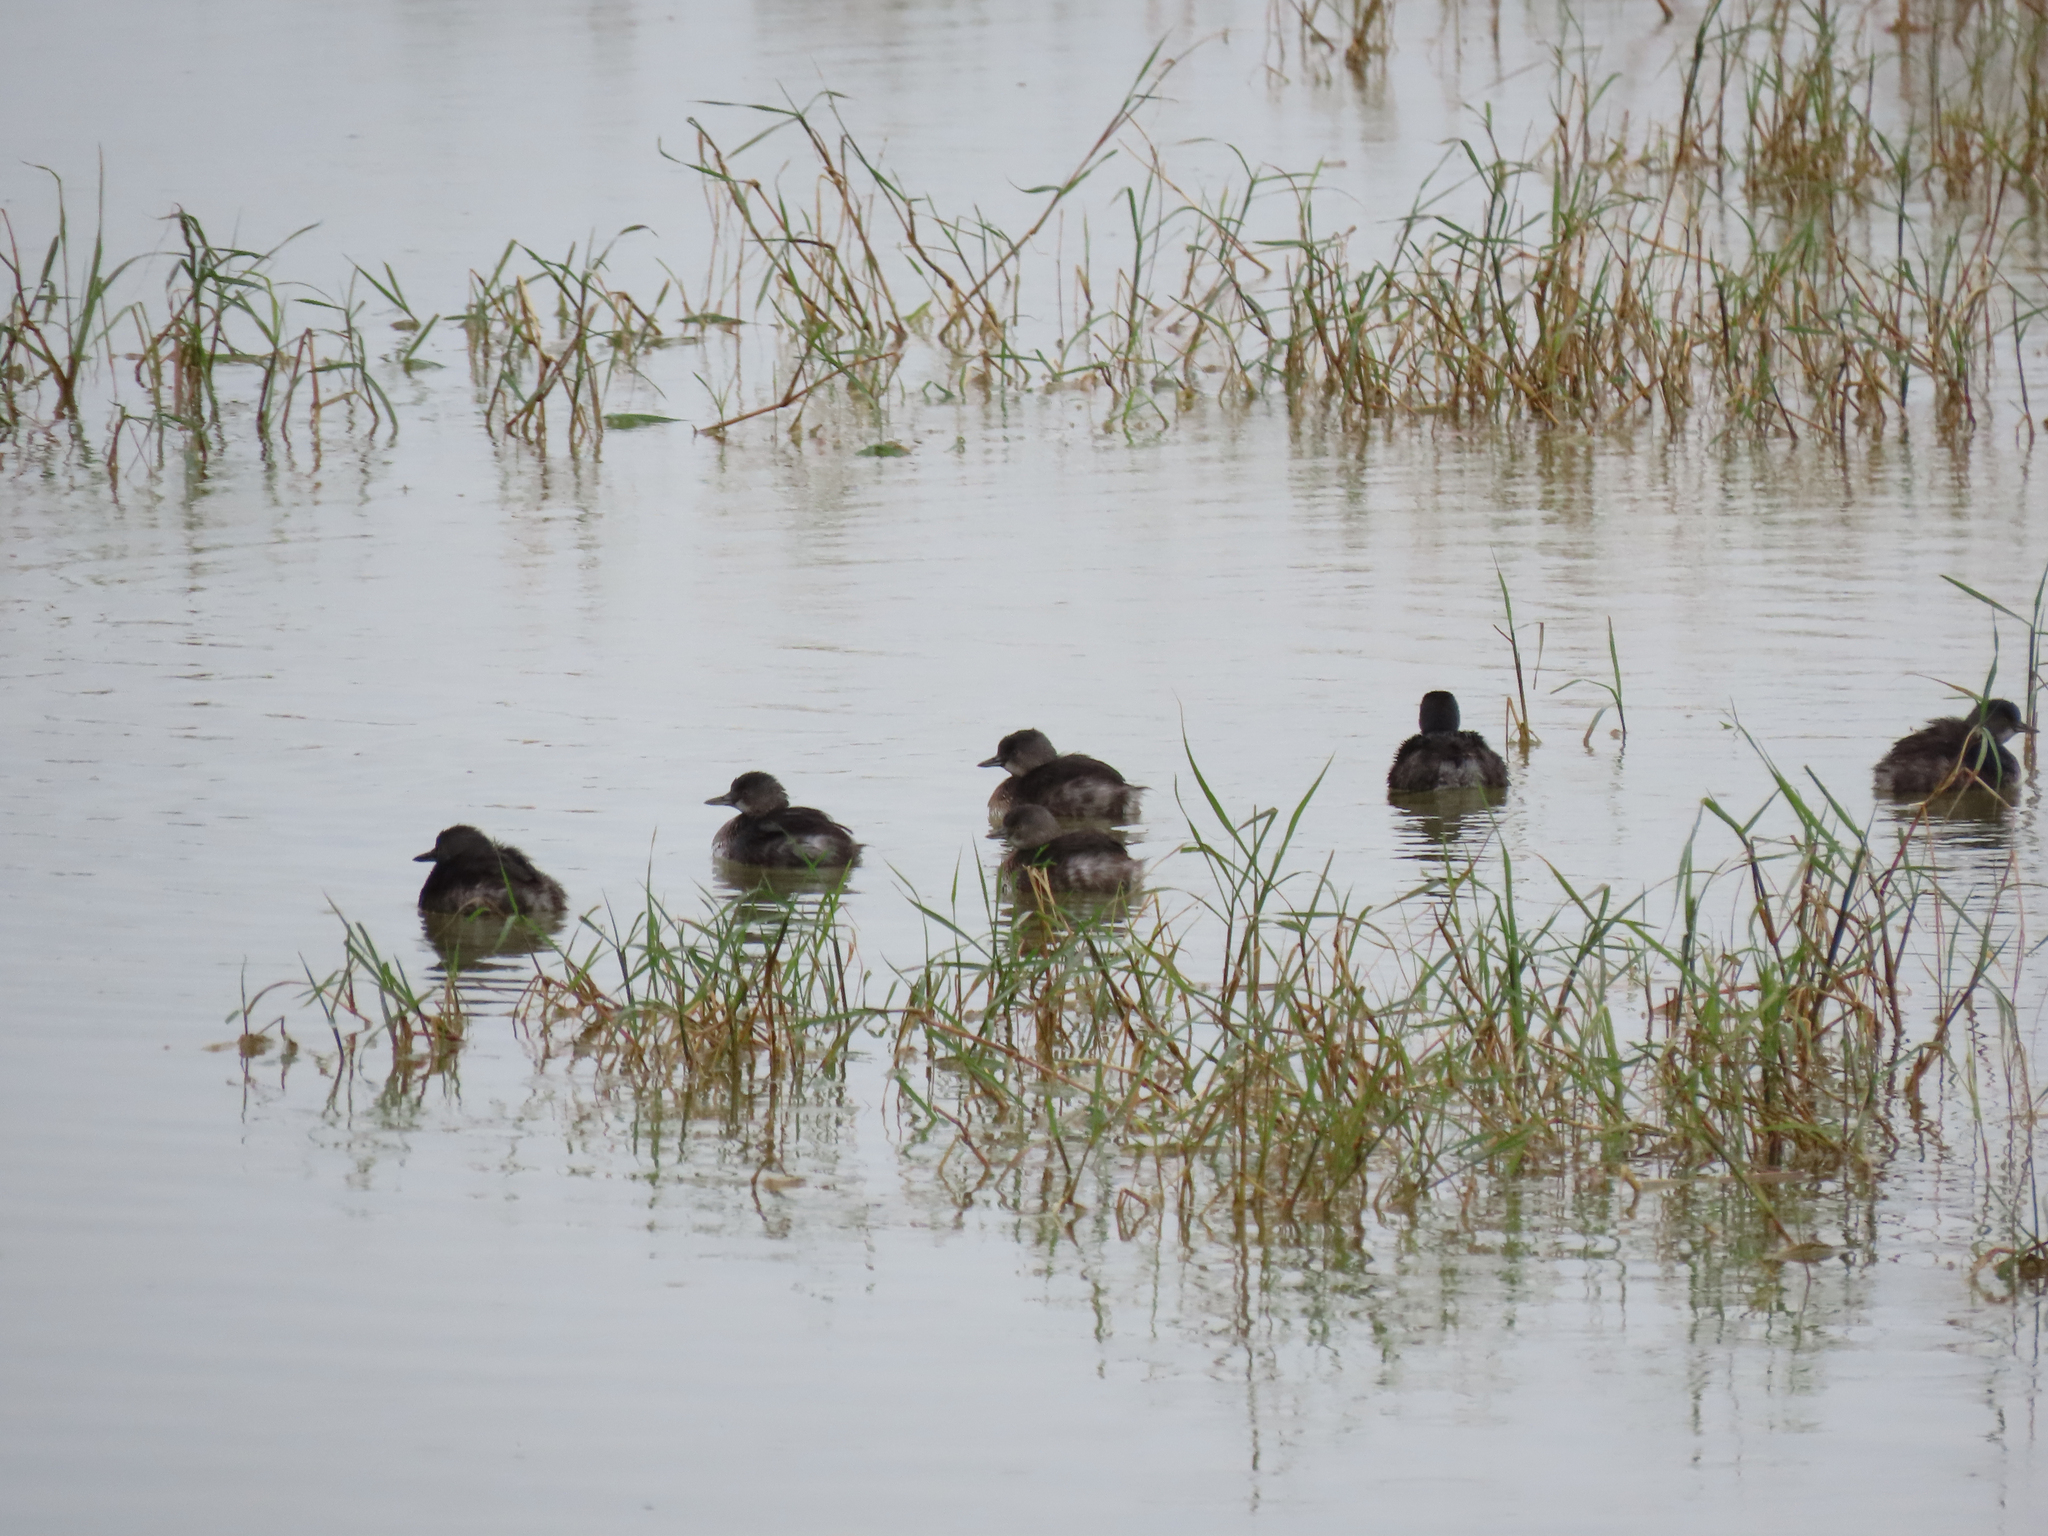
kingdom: Animalia
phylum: Chordata
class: Aves
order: Podicipediformes
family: Podicipedidae
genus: Tachybaptus
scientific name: Tachybaptus dominicus
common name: Least grebe
